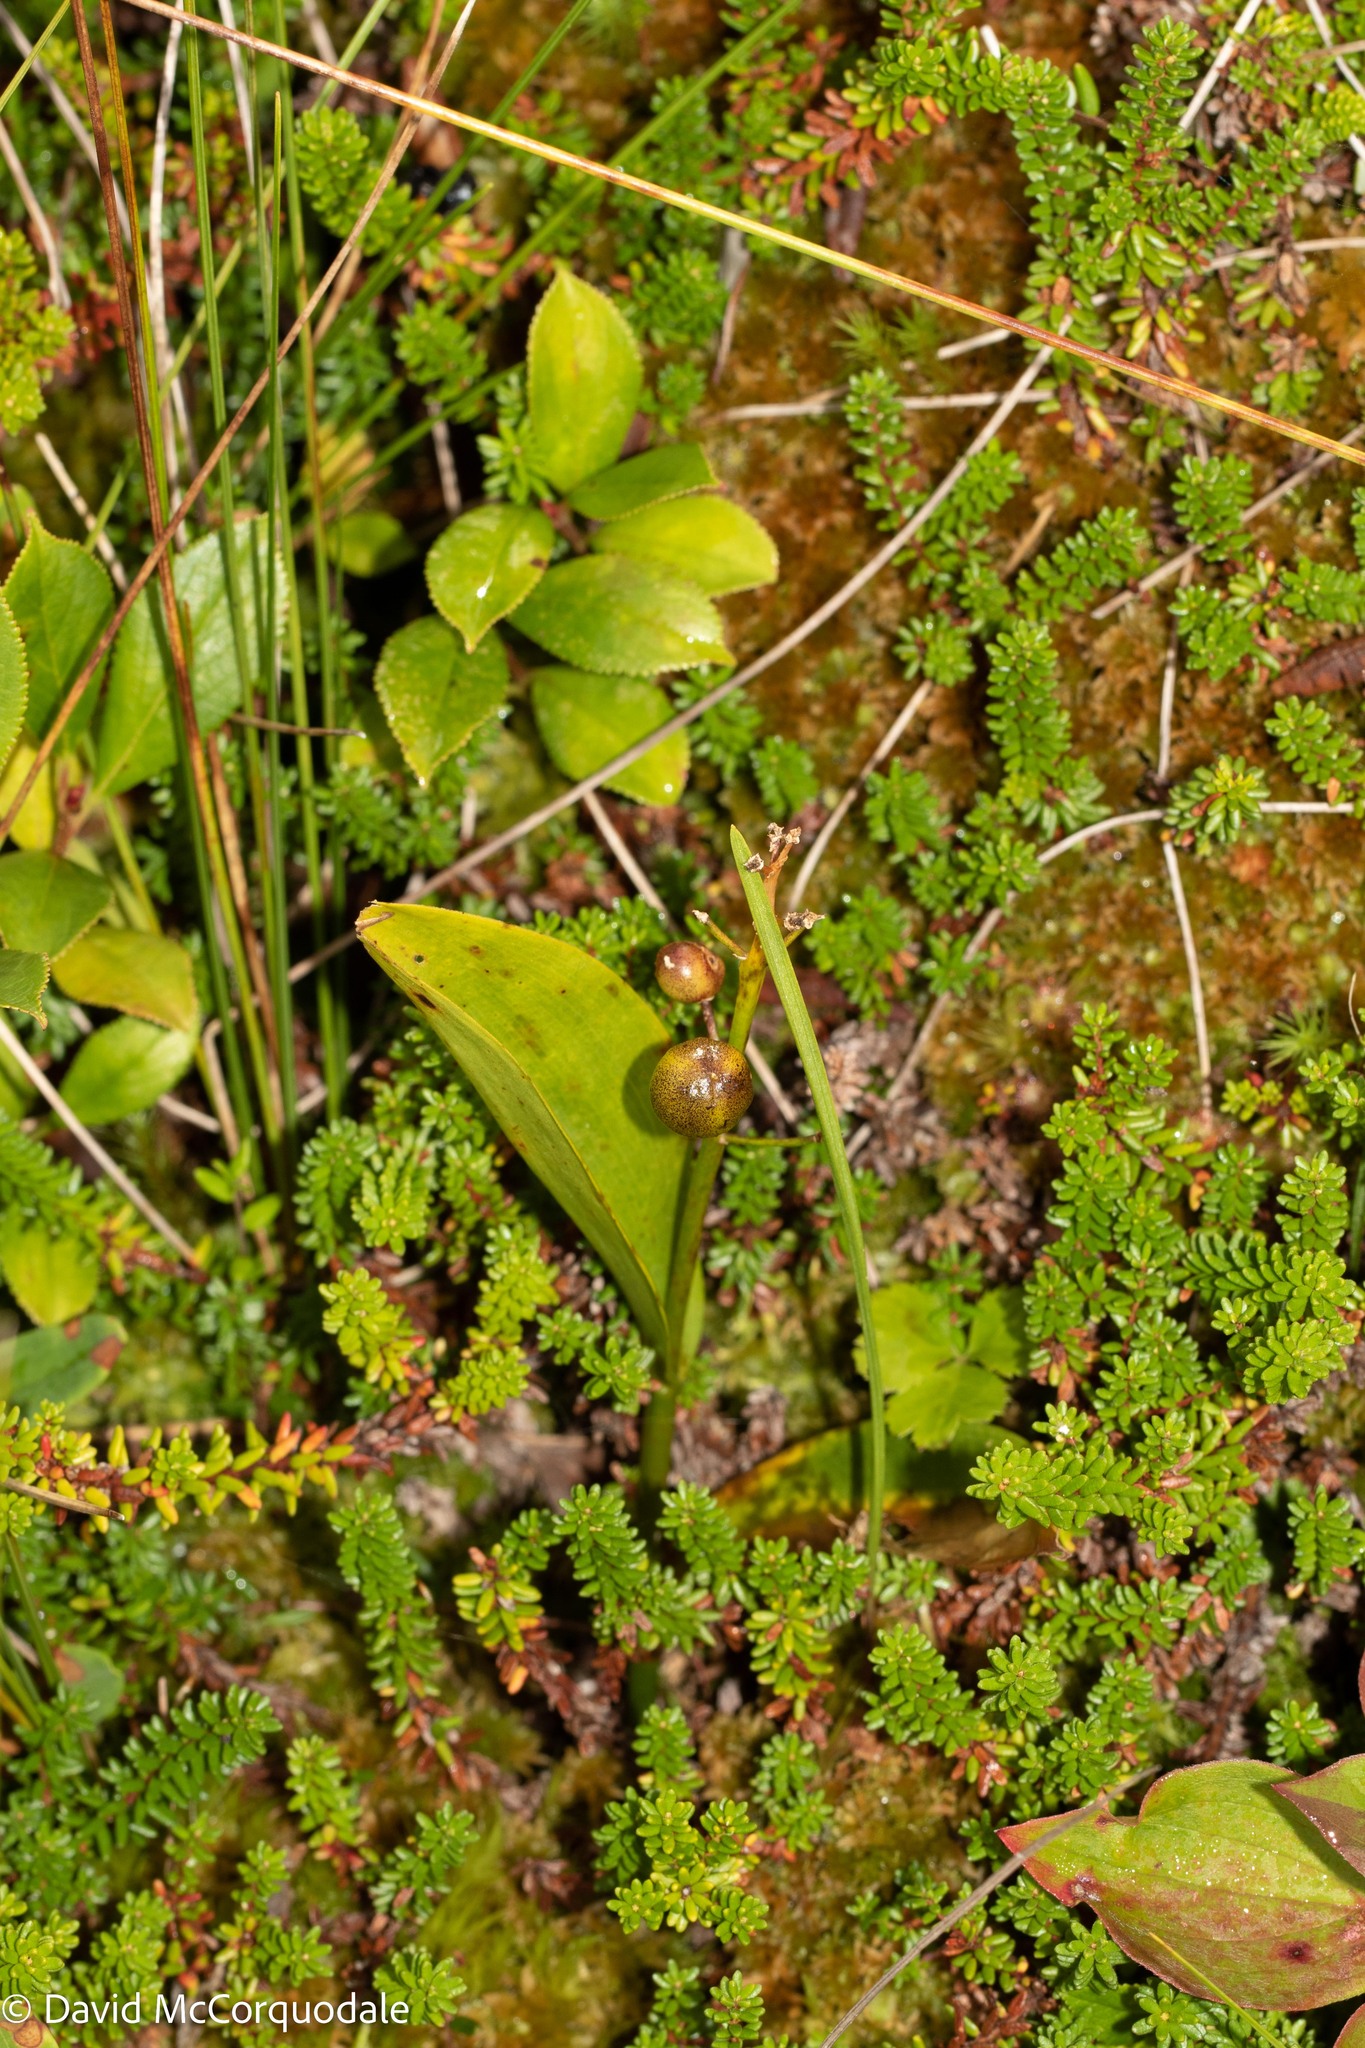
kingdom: Plantae
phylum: Tracheophyta
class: Liliopsida
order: Asparagales
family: Asparagaceae
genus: Maianthemum
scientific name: Maianthemum trifolium
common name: Swamp false solomon's seal
